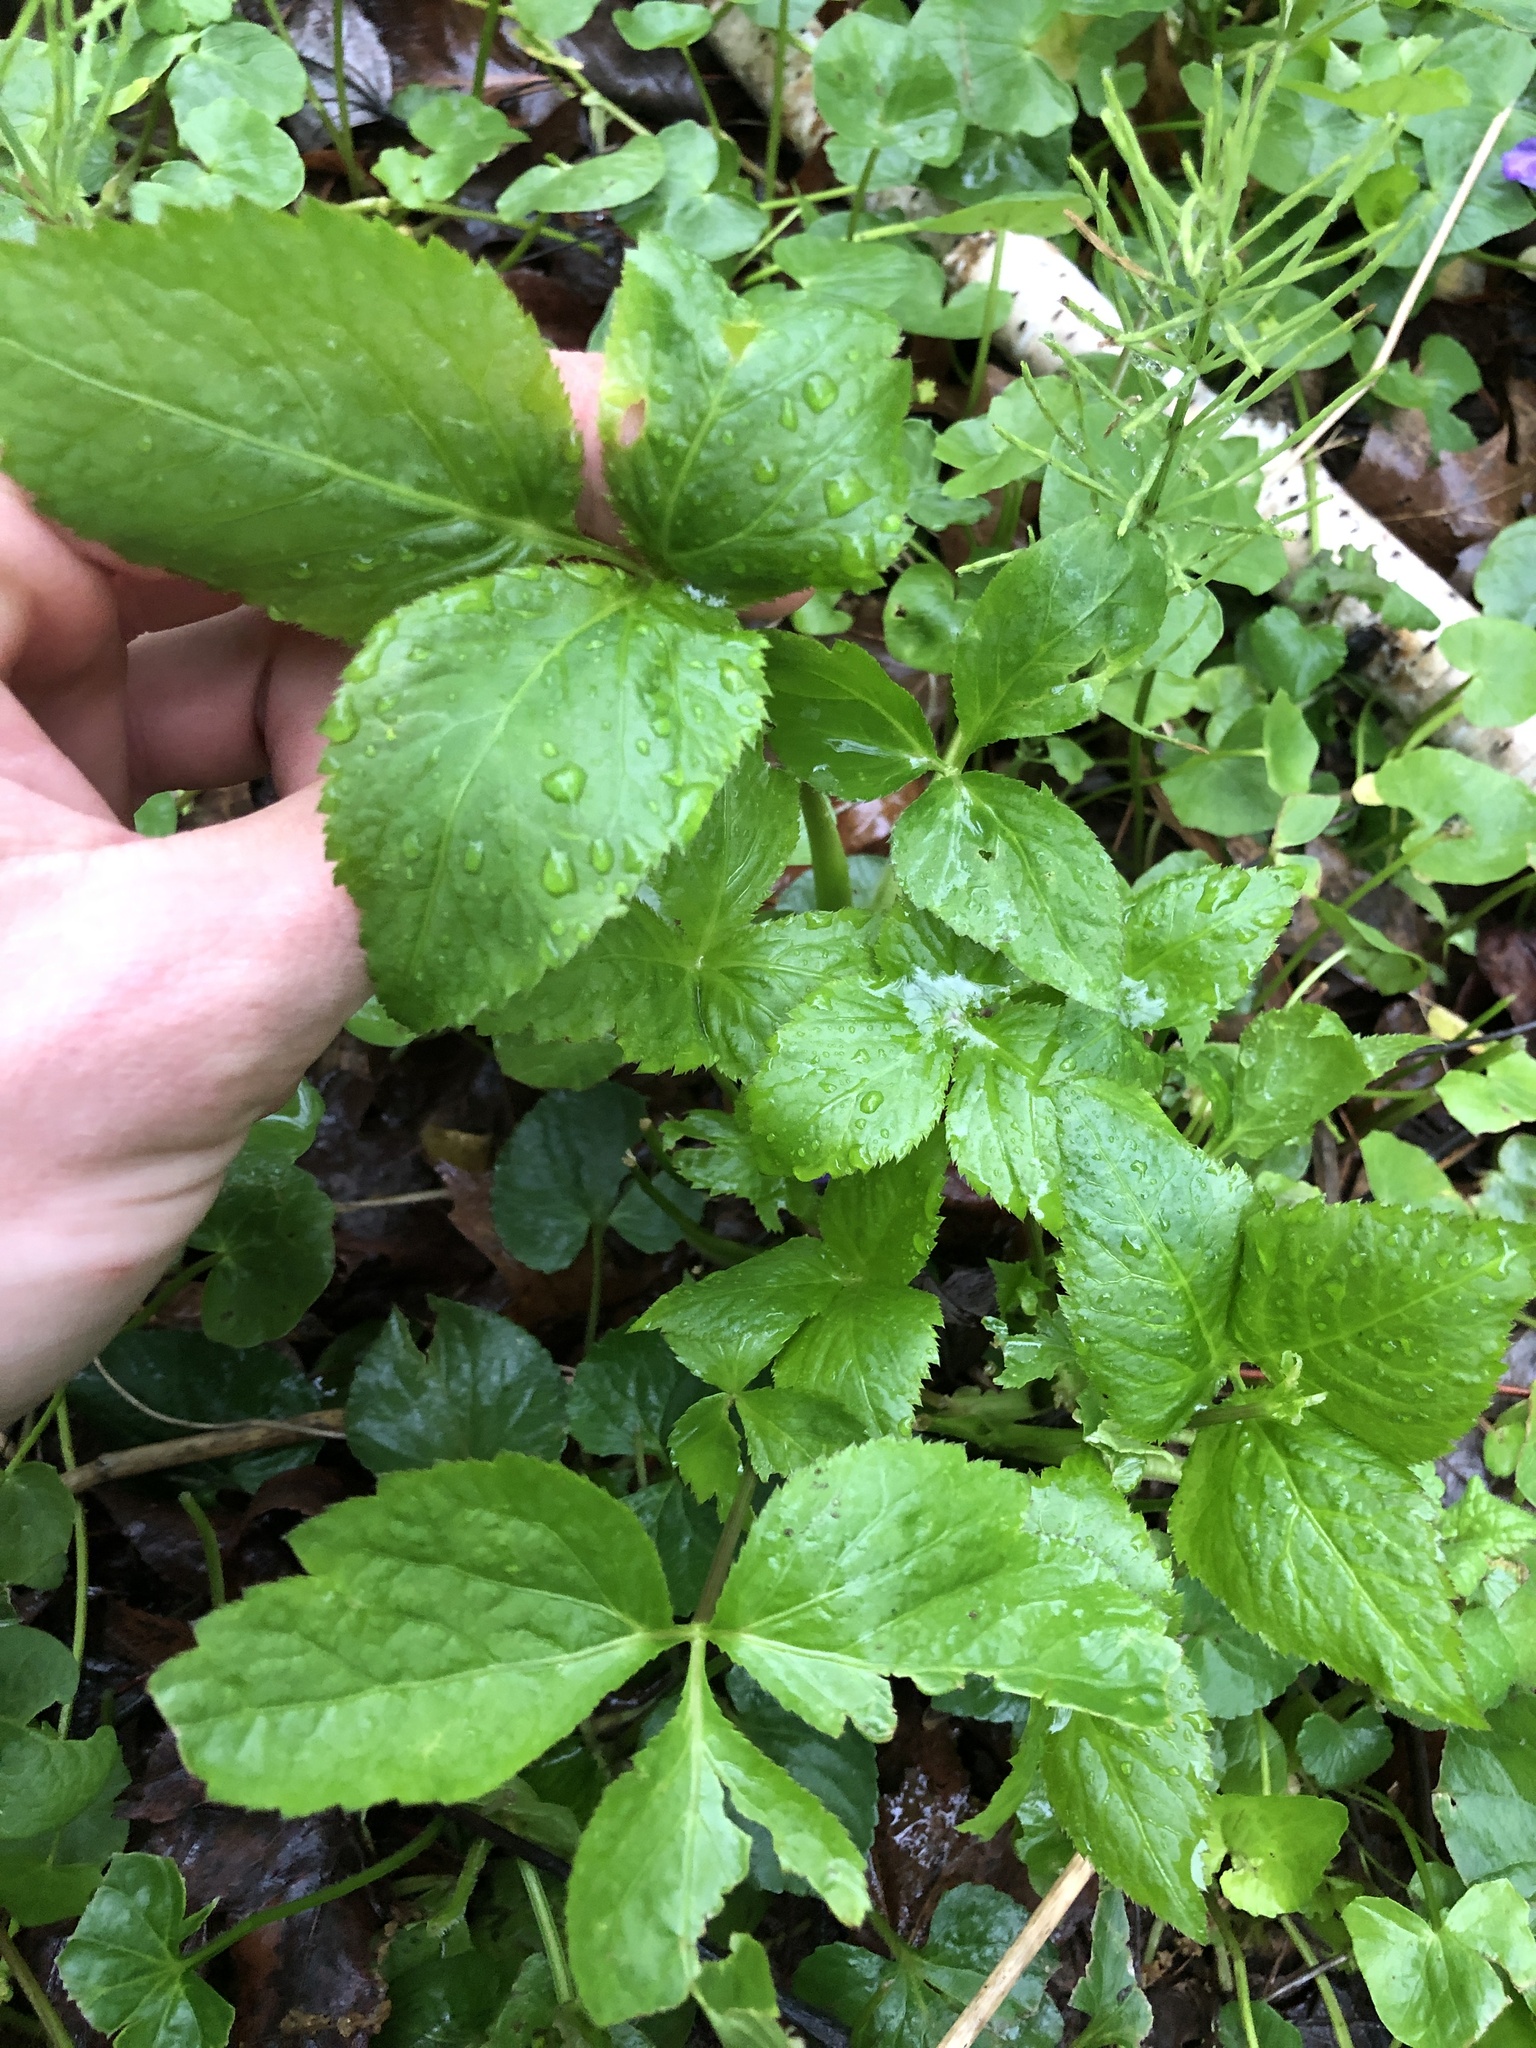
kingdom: Plantae
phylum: Tracheophyta
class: Magnoliopsida
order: Apiales
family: Apiaceae
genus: Cryptotaenia
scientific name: Cryptotaenia canadensis
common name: Honewort
